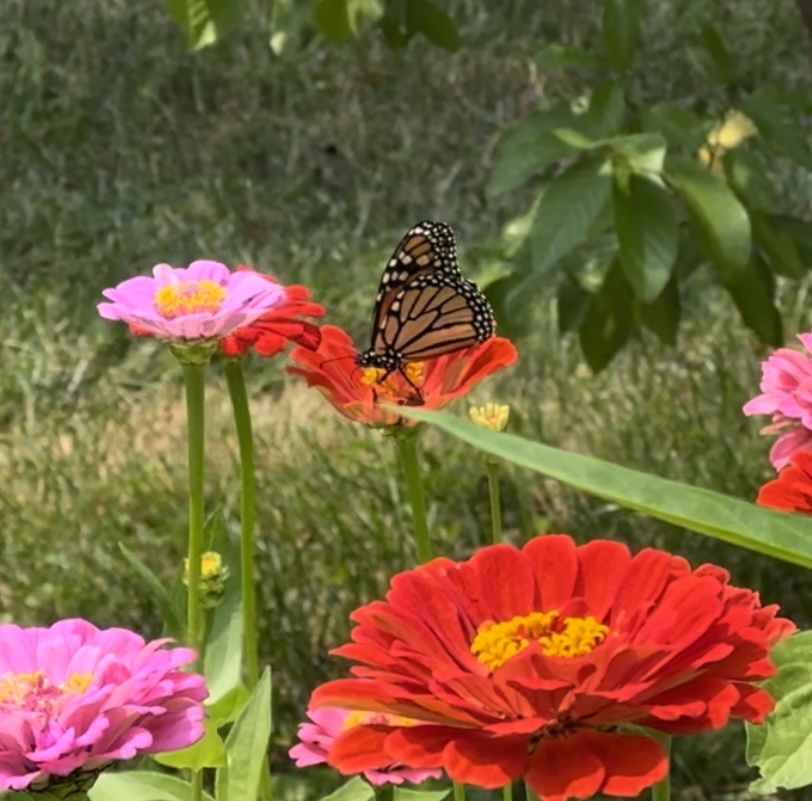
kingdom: Animalia
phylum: Arthropoda
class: Insecta
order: Lepidoptera
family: Nymphalidae
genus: Danaus
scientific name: Danaus plexippus
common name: Monarch
